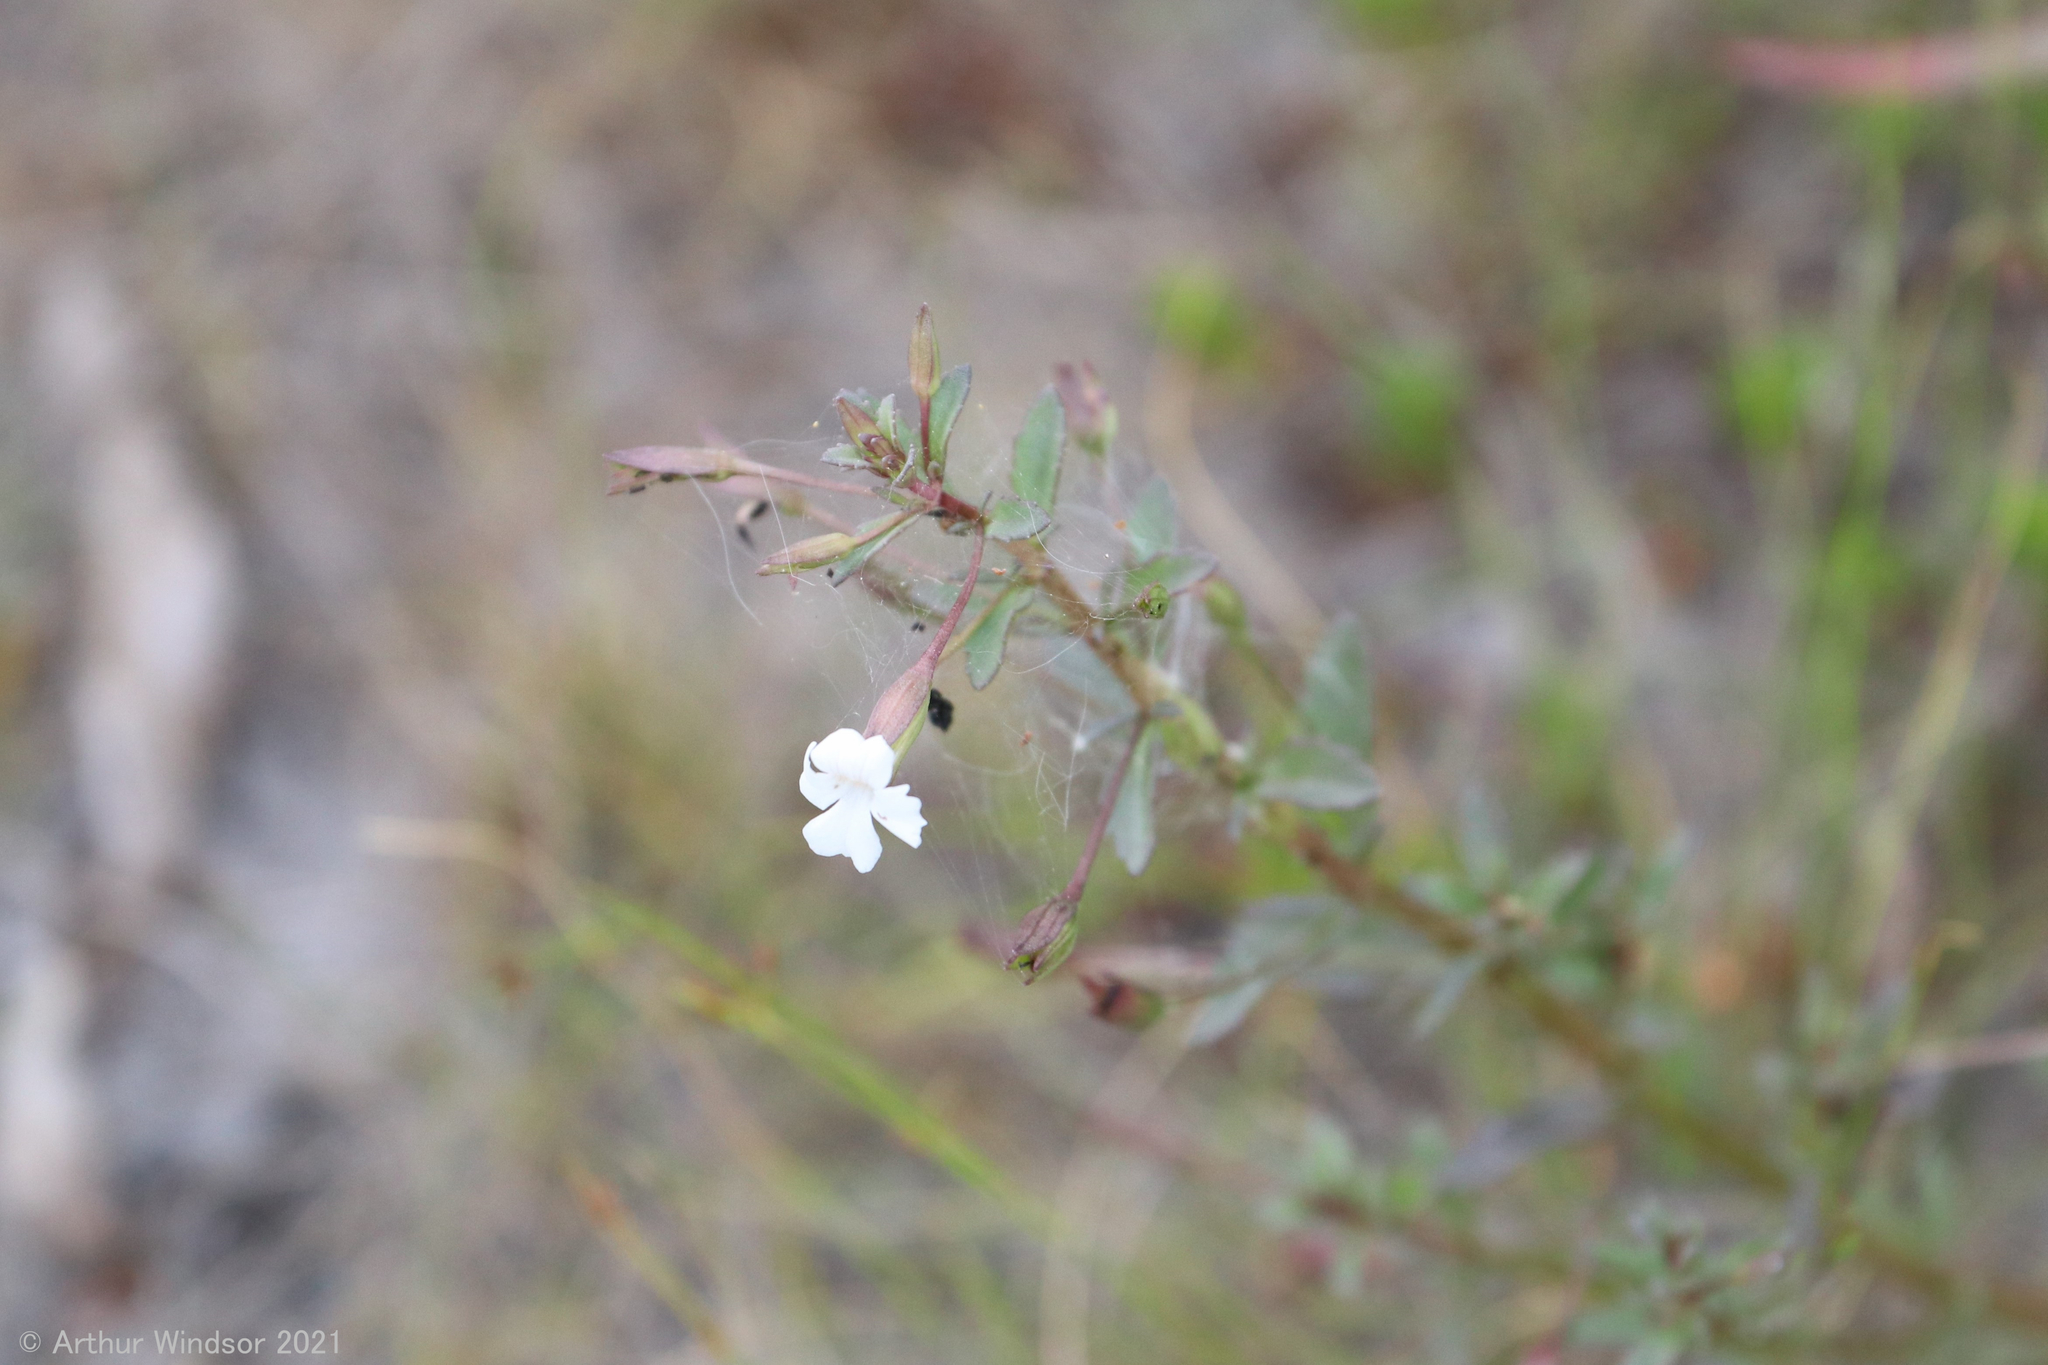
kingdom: Plantae
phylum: Tracheophyta
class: Magnoliopsida
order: Lamiales
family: Plantaginaceae
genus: Mecardonia
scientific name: Mecardonia acuminata
